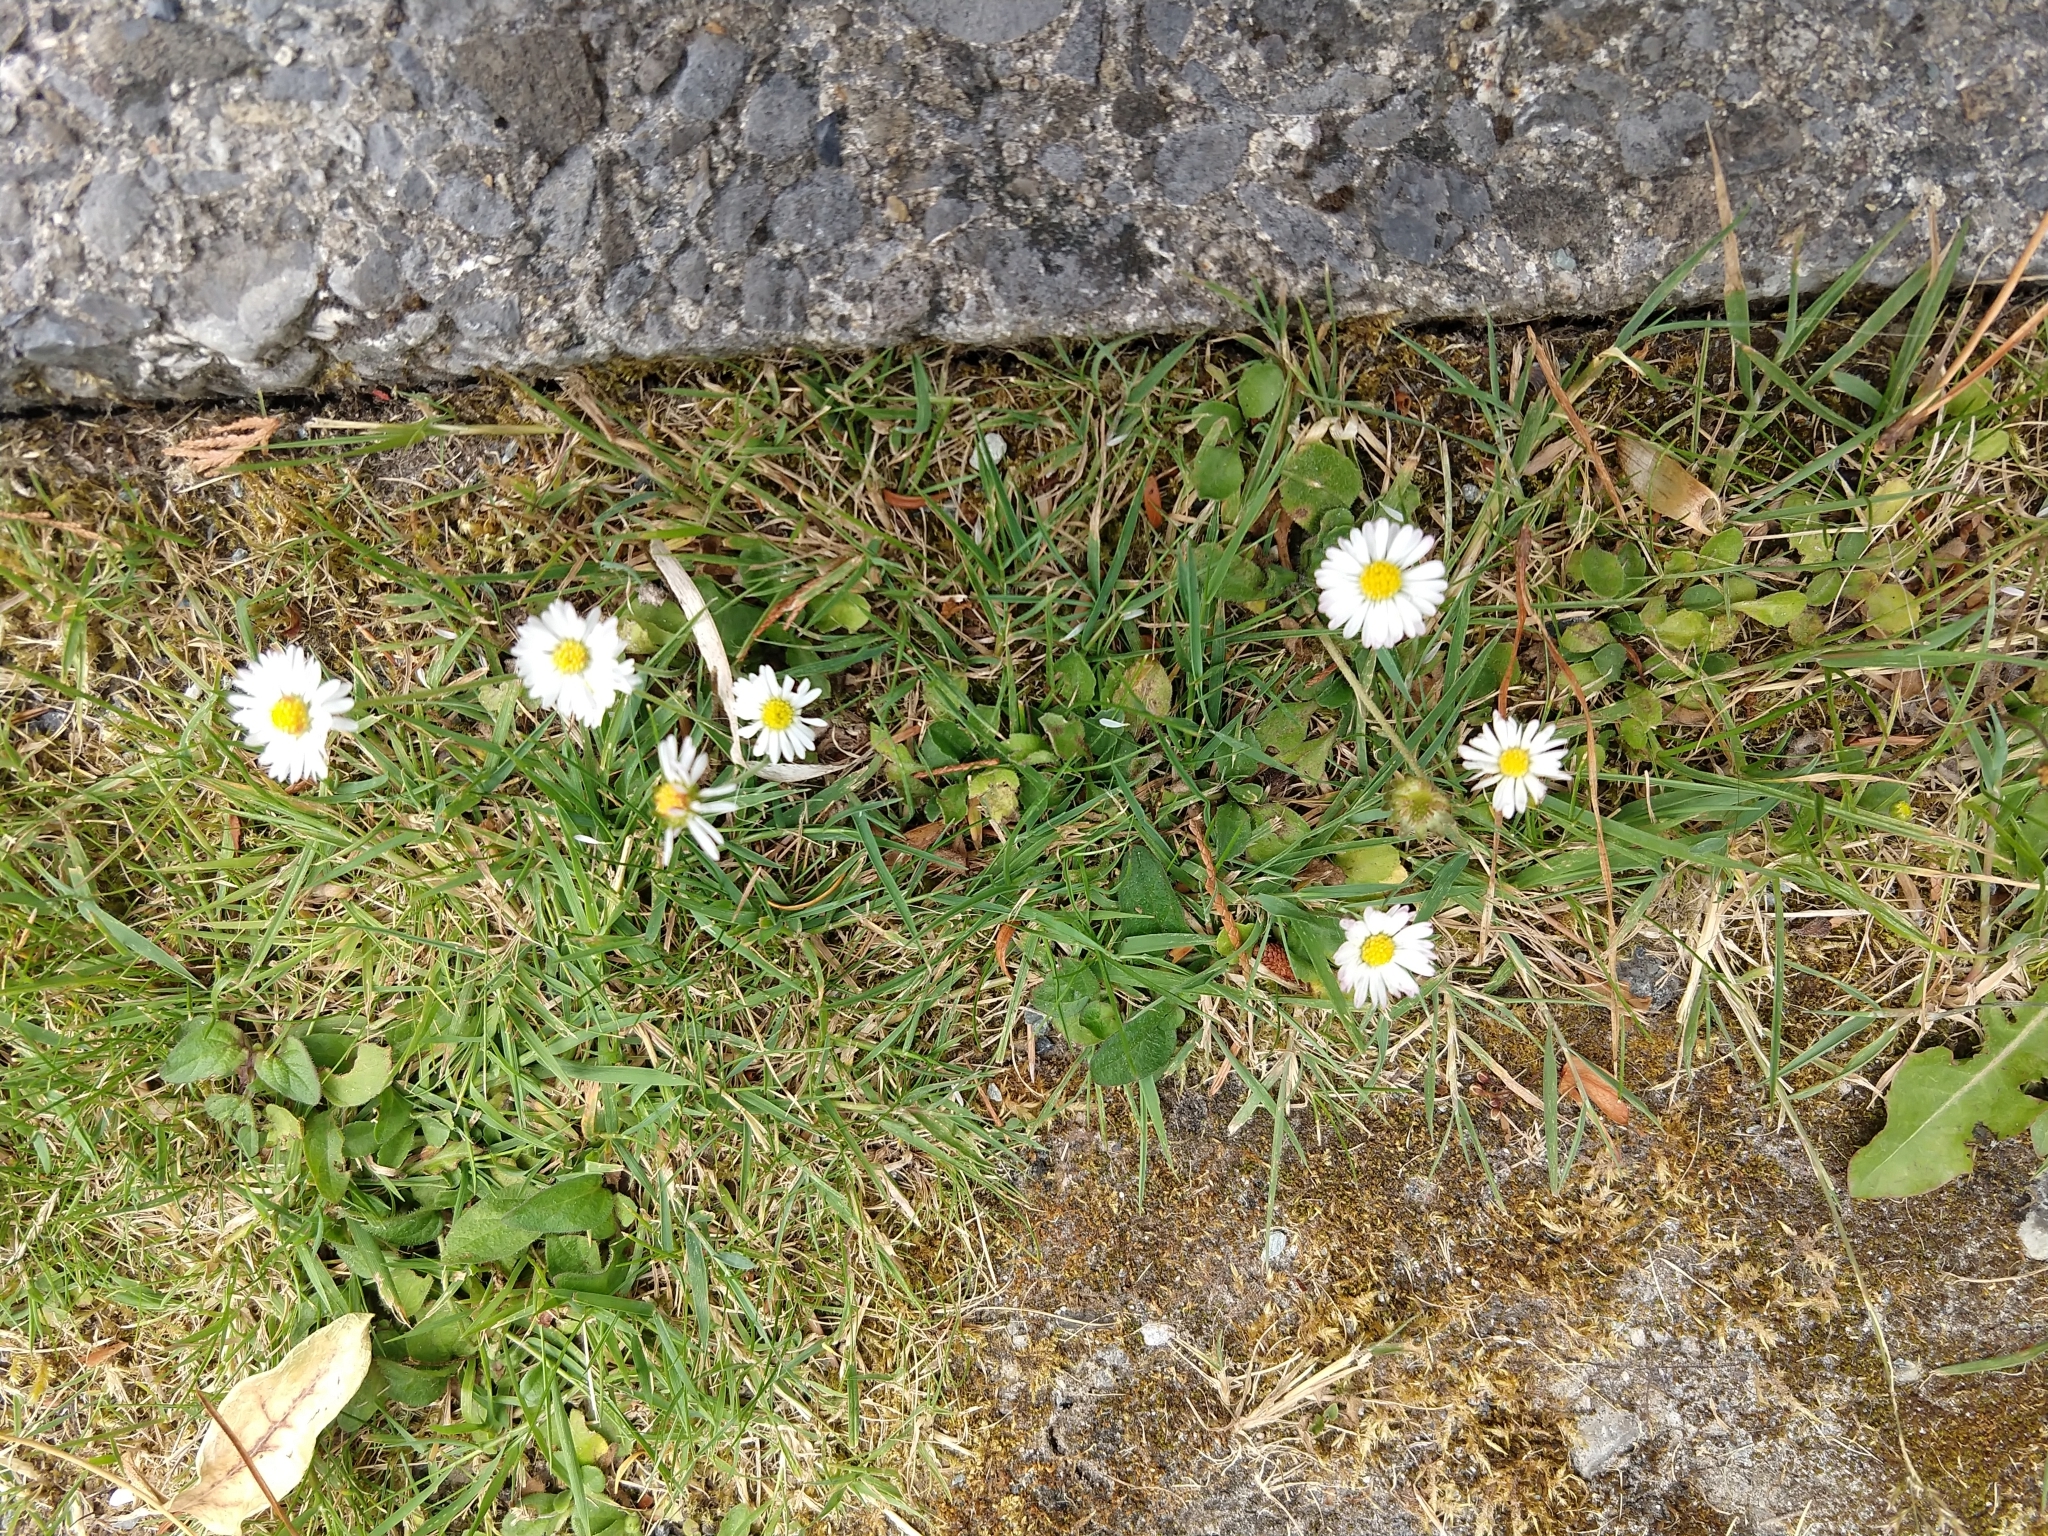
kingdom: Plantae
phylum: Tracheophyta
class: Magnoliopsida
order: Asterales
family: Asteraceae
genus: Bellis
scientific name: Bellis perennis
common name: Lawndaisy
